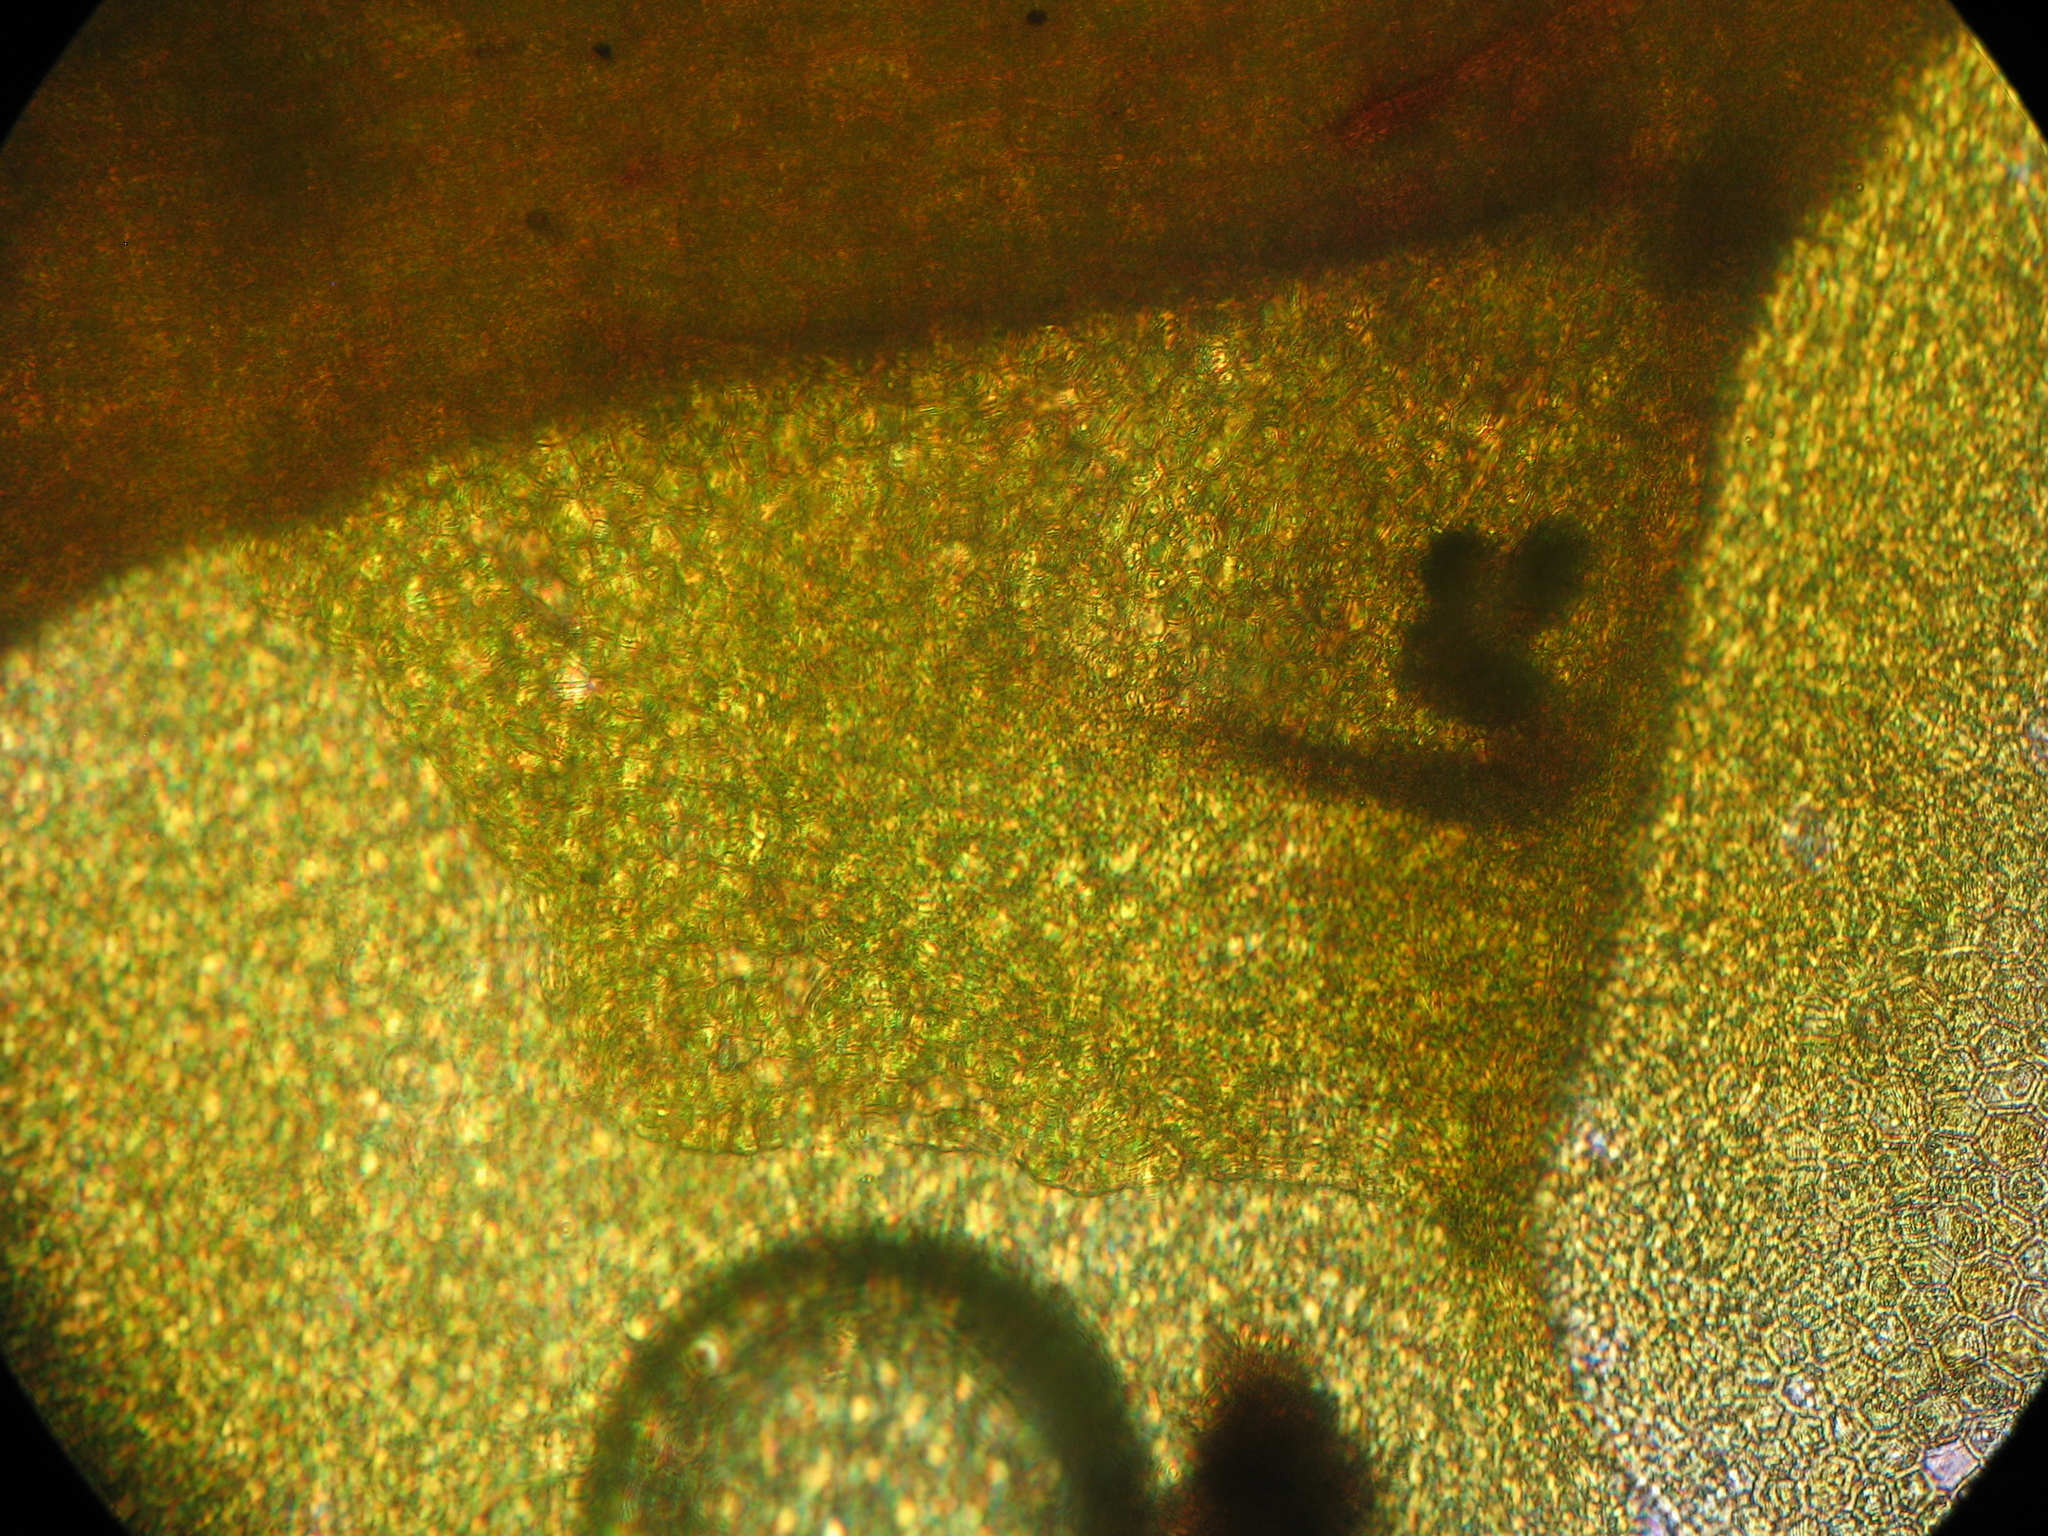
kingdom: Plantae
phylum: Marchantiophyta
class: Jungermanniopsida
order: Porellales
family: Radulaceae
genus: Radula
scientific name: Radula strangulata
